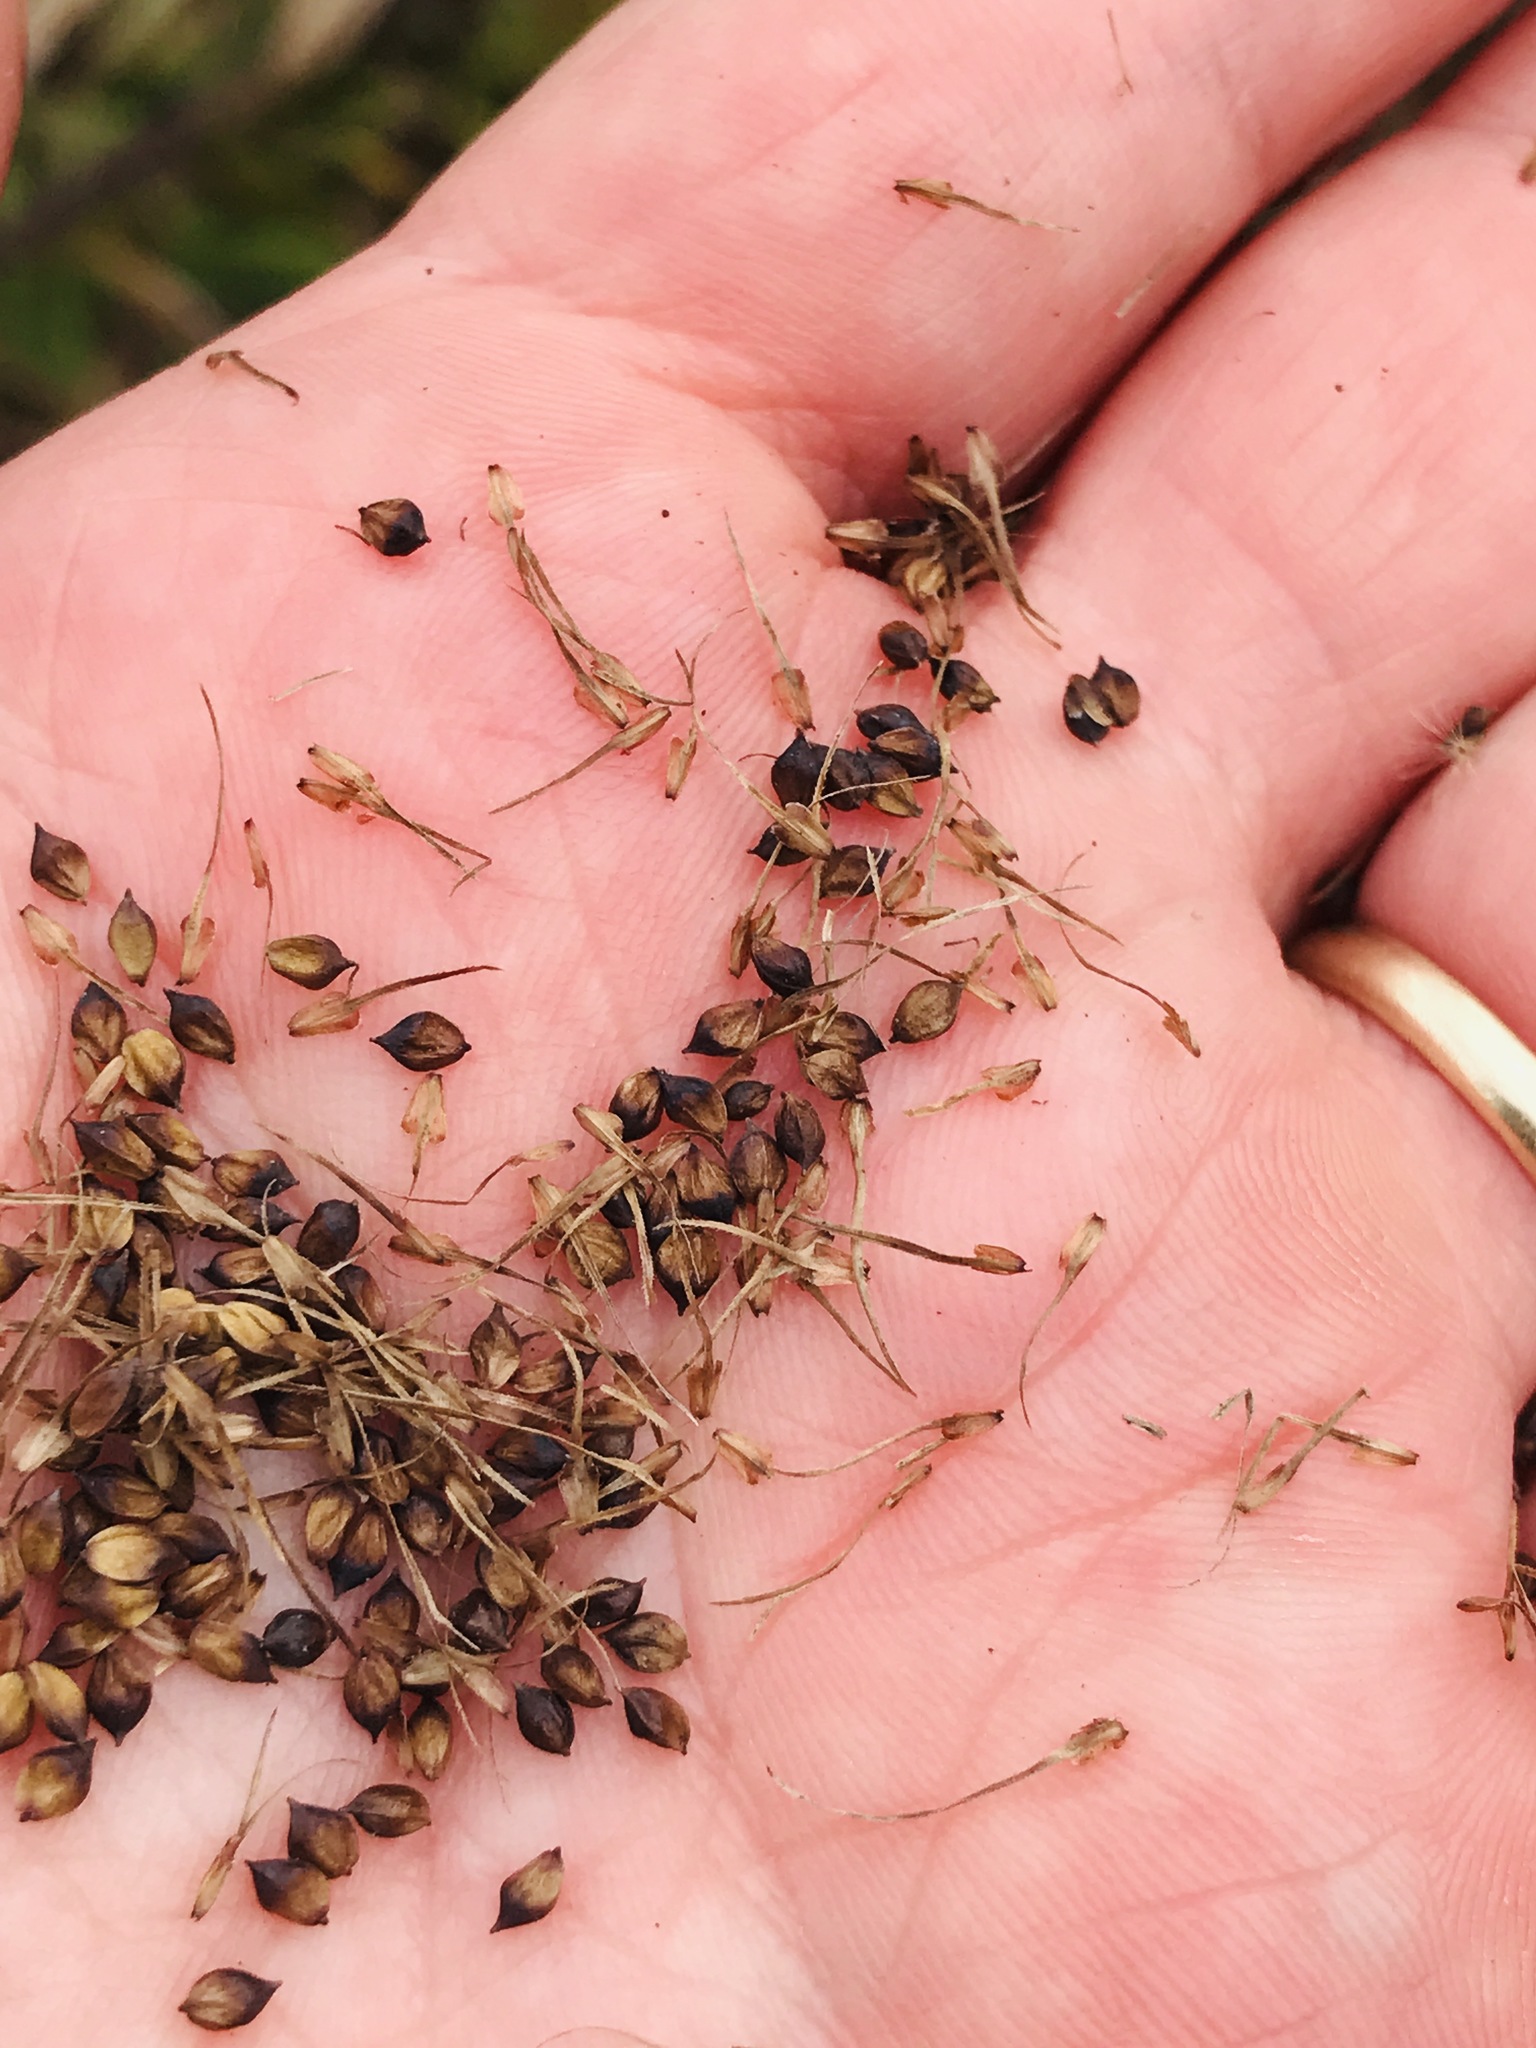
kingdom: Plantae
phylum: Tracheophyta
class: Liliopsida
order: Poales
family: Cyperaceae
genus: Carex
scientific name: Carex crinita
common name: Fringed sedge
